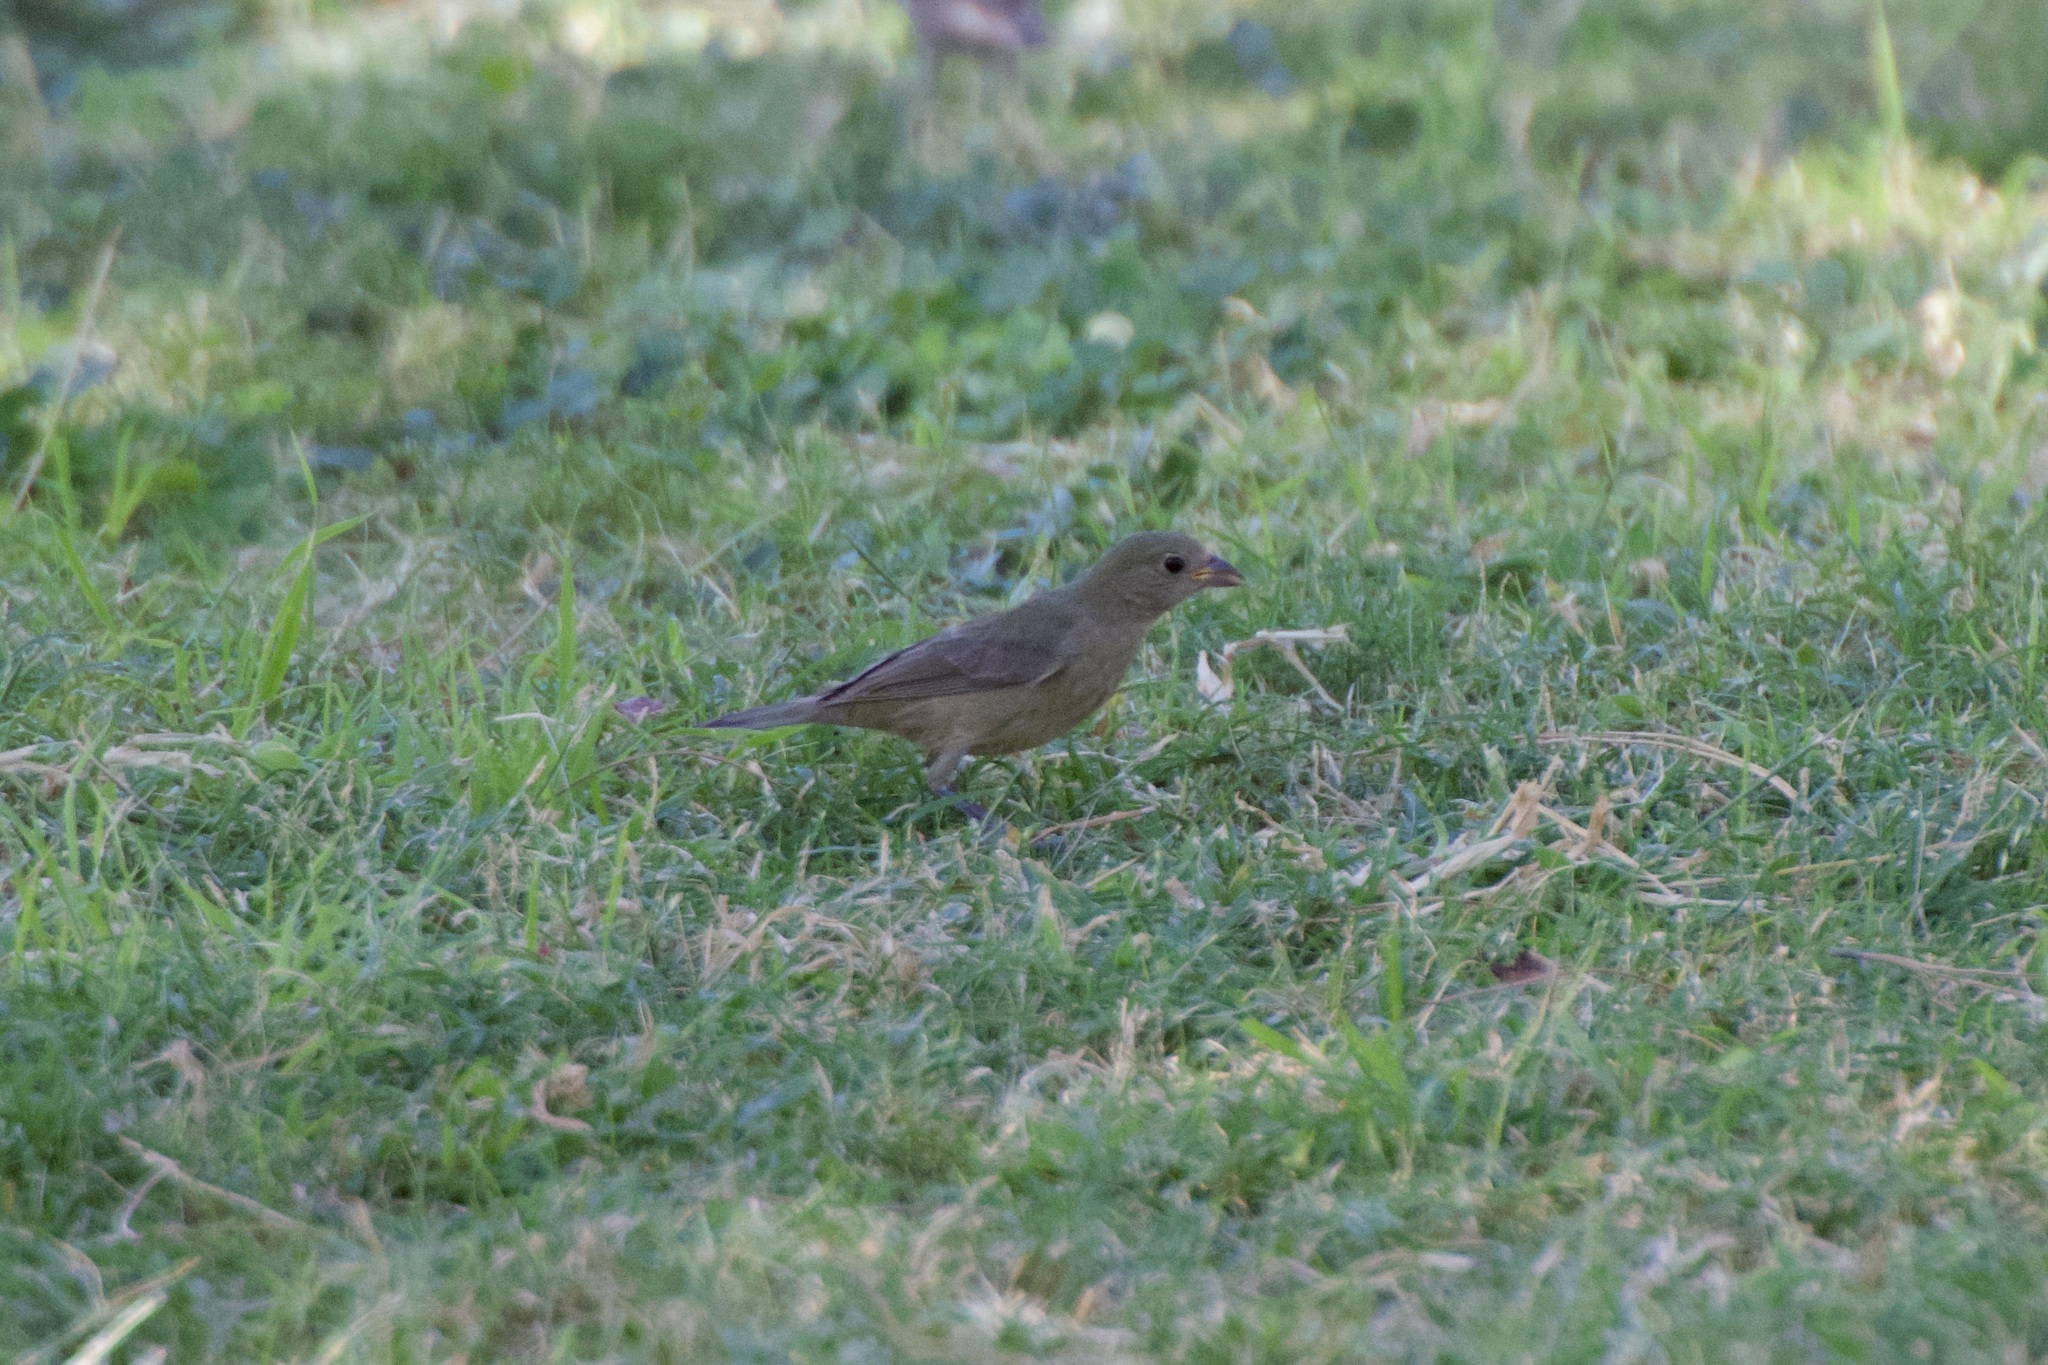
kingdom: Animalia
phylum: Chordata
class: Aves
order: Passeriformes
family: Cardinalidae
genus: Passerina
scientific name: Passerina ciris
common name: Painted bunting
